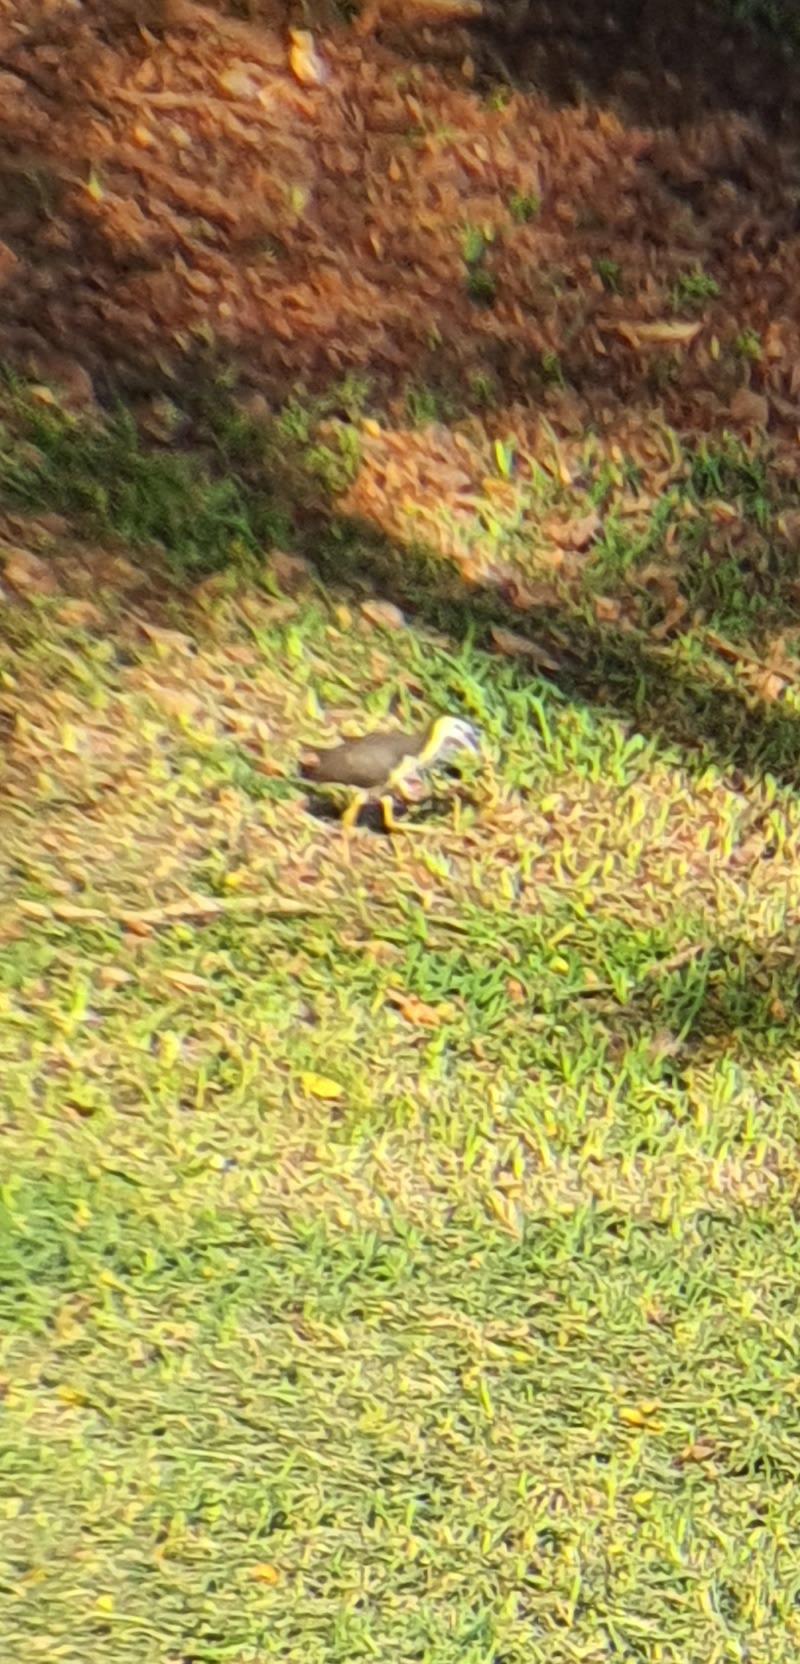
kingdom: Animalia
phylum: Chordata
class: Aves
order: Gruiformes
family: Rallidae
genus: Amaurornis
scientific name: Amaurornis phoenicurus
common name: White-breasted waterhen
